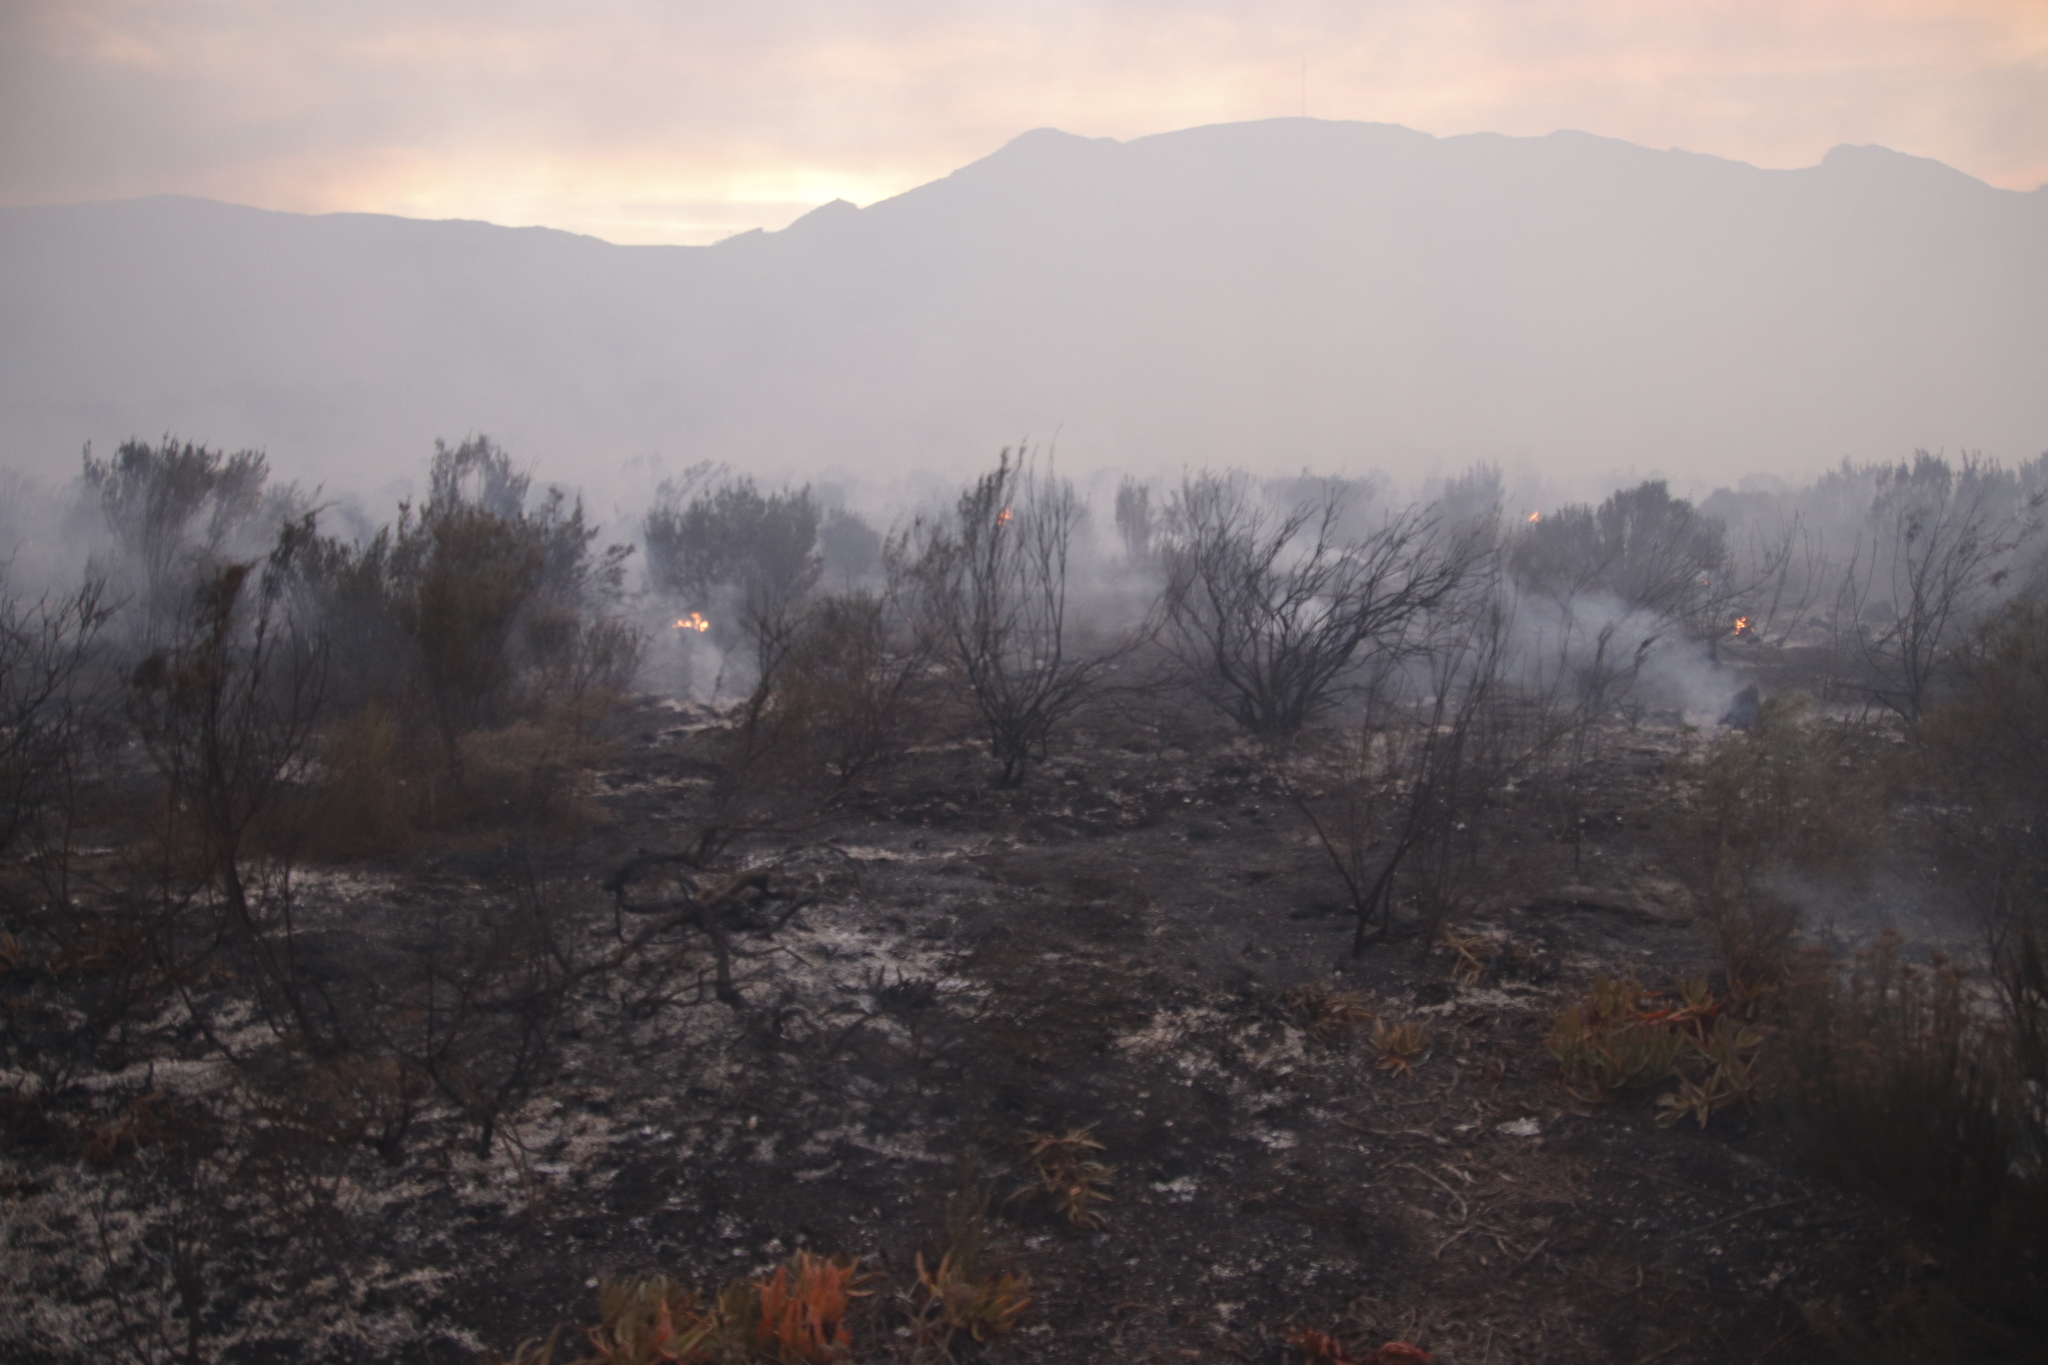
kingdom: Plantae
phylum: Tracheophyta
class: Magnoliopsida
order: Malvales
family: Thymelaeaceae
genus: Passerina
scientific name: Passerina corymbosa
